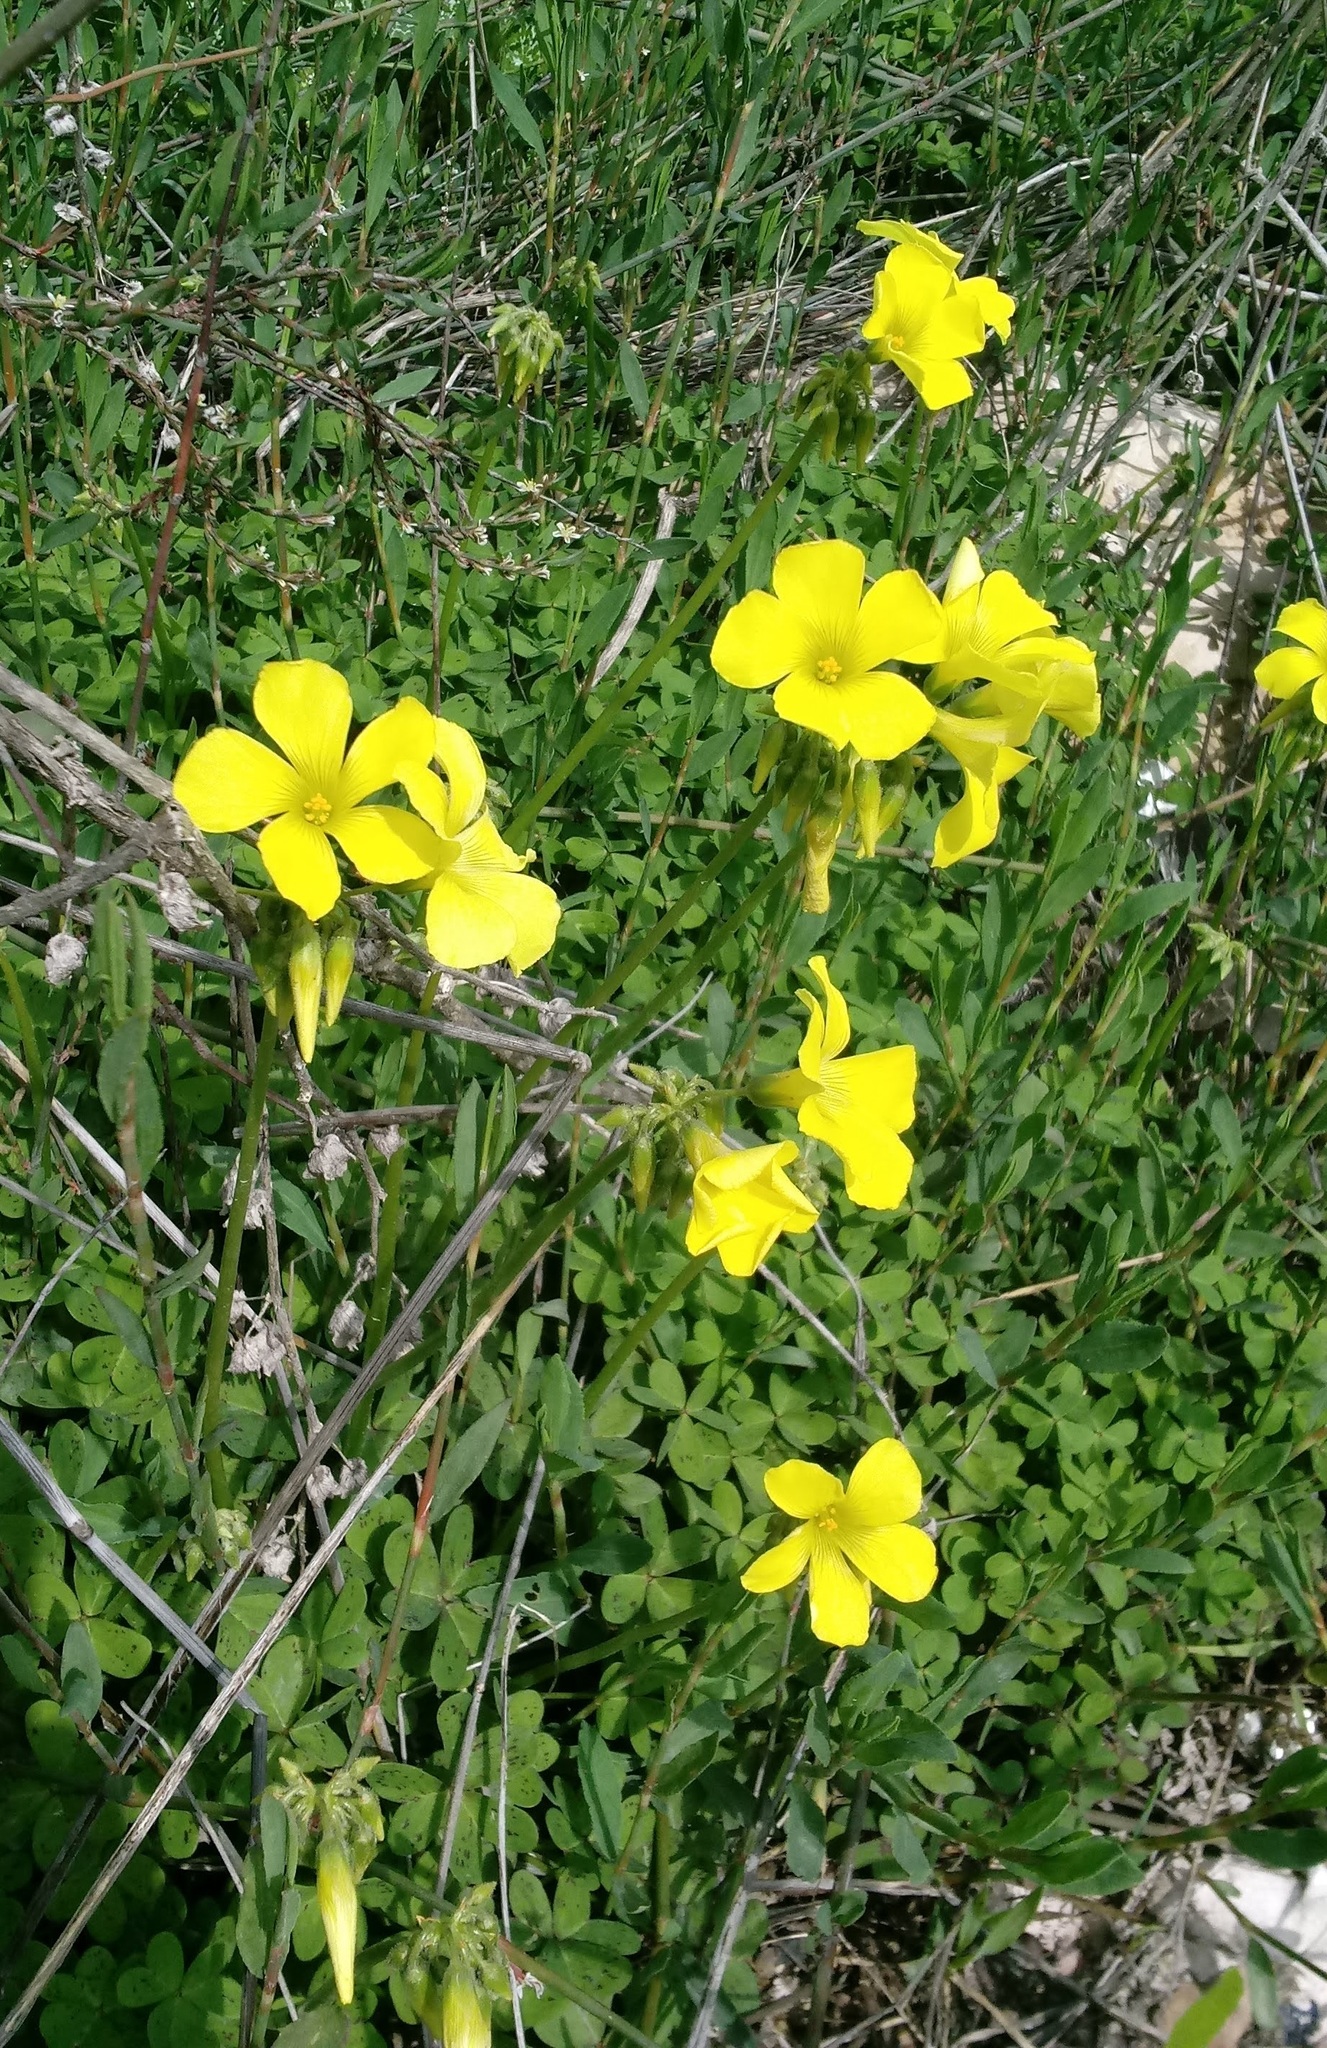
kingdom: Plantae
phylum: Tracheophyta
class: Magnoliopsida
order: Oxalidales
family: Oxalidaceae
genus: Oxalis
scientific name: Oxalis pes-caprae
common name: Bermuda-buttercup
